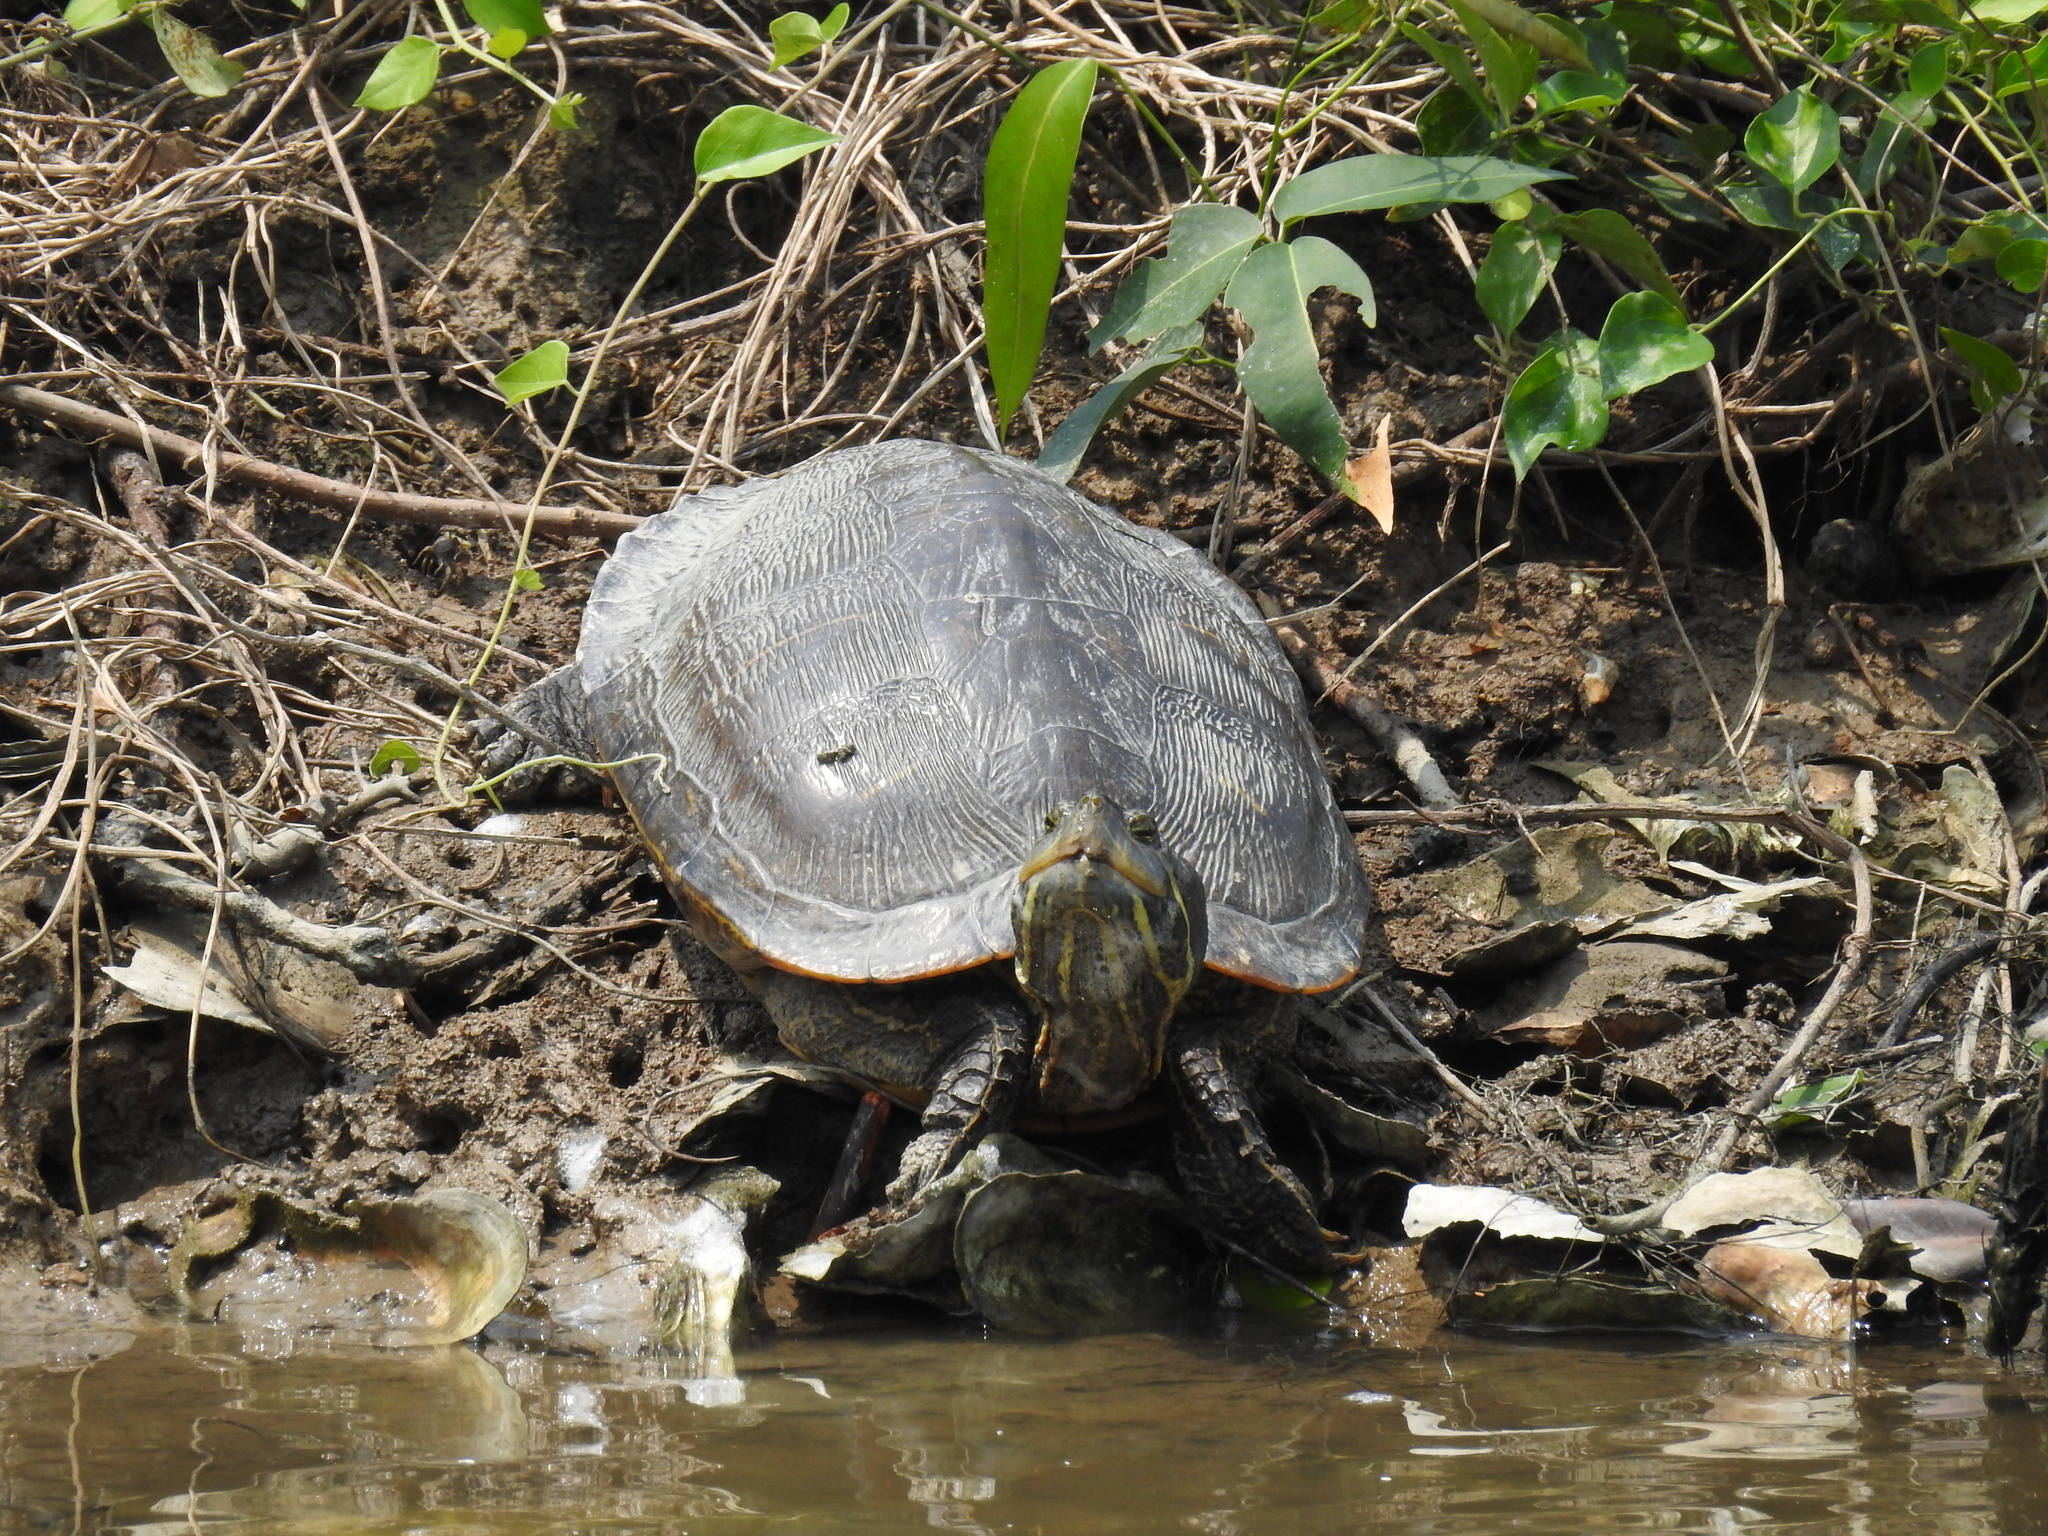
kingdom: Animalia
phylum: Chordata
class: Testudines
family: Emydidae
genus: Trachemys
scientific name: Trachemys scripta
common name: Slider
